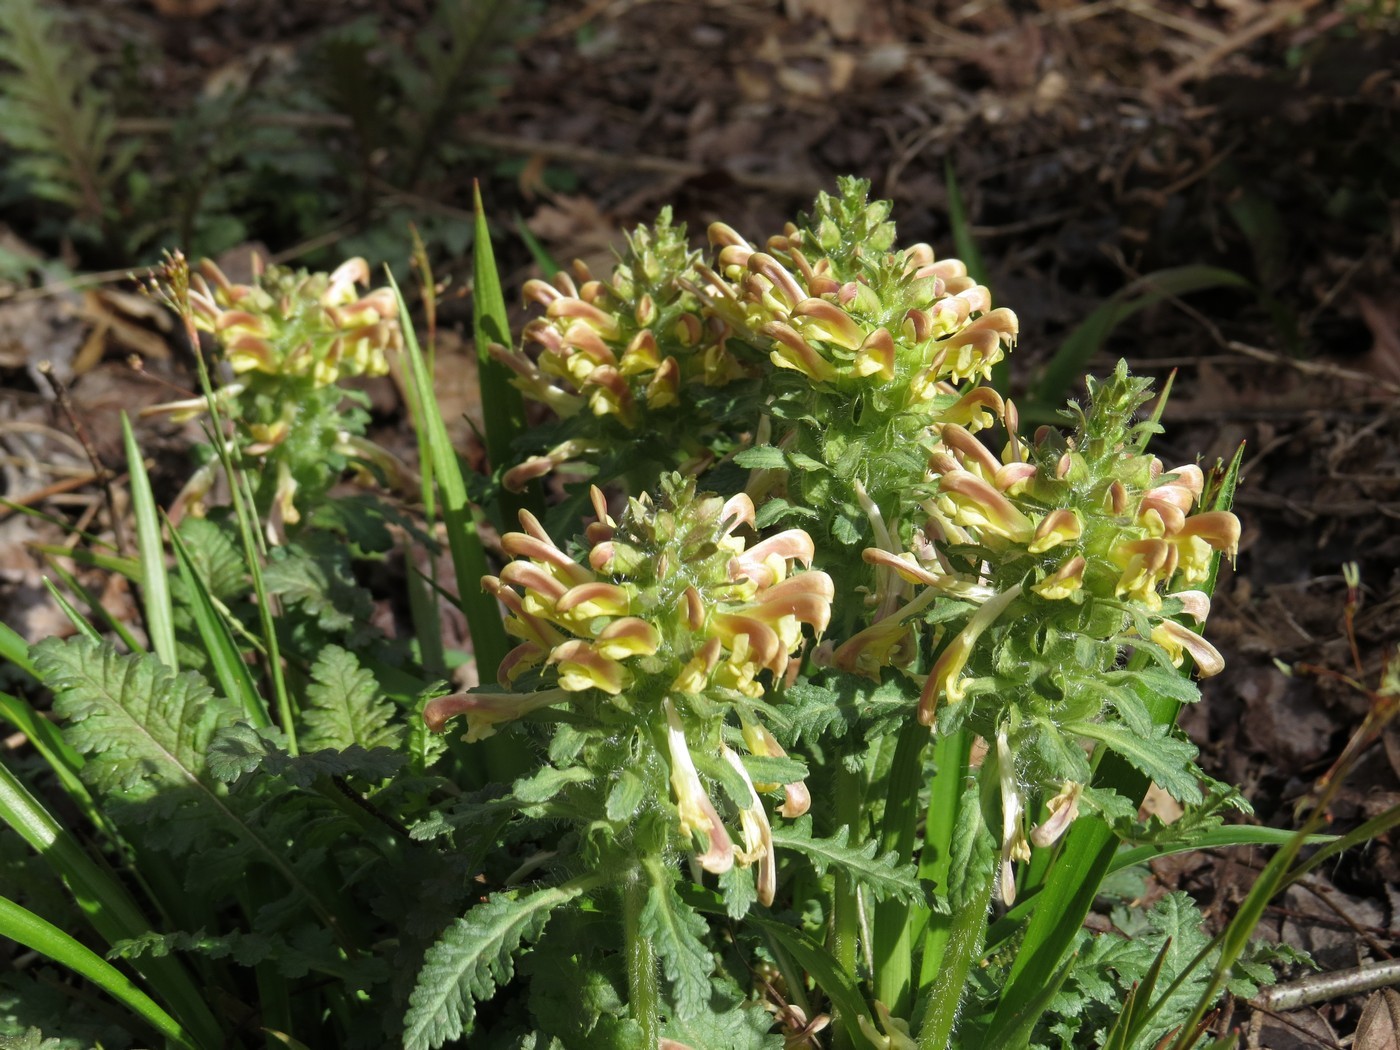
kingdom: Plantae
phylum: Tracheophyta
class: Magnoliopsida
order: Lamiales
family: Orobanchaceae
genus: Pedicularis
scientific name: Pedicularis canadensis
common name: Early lousewort
